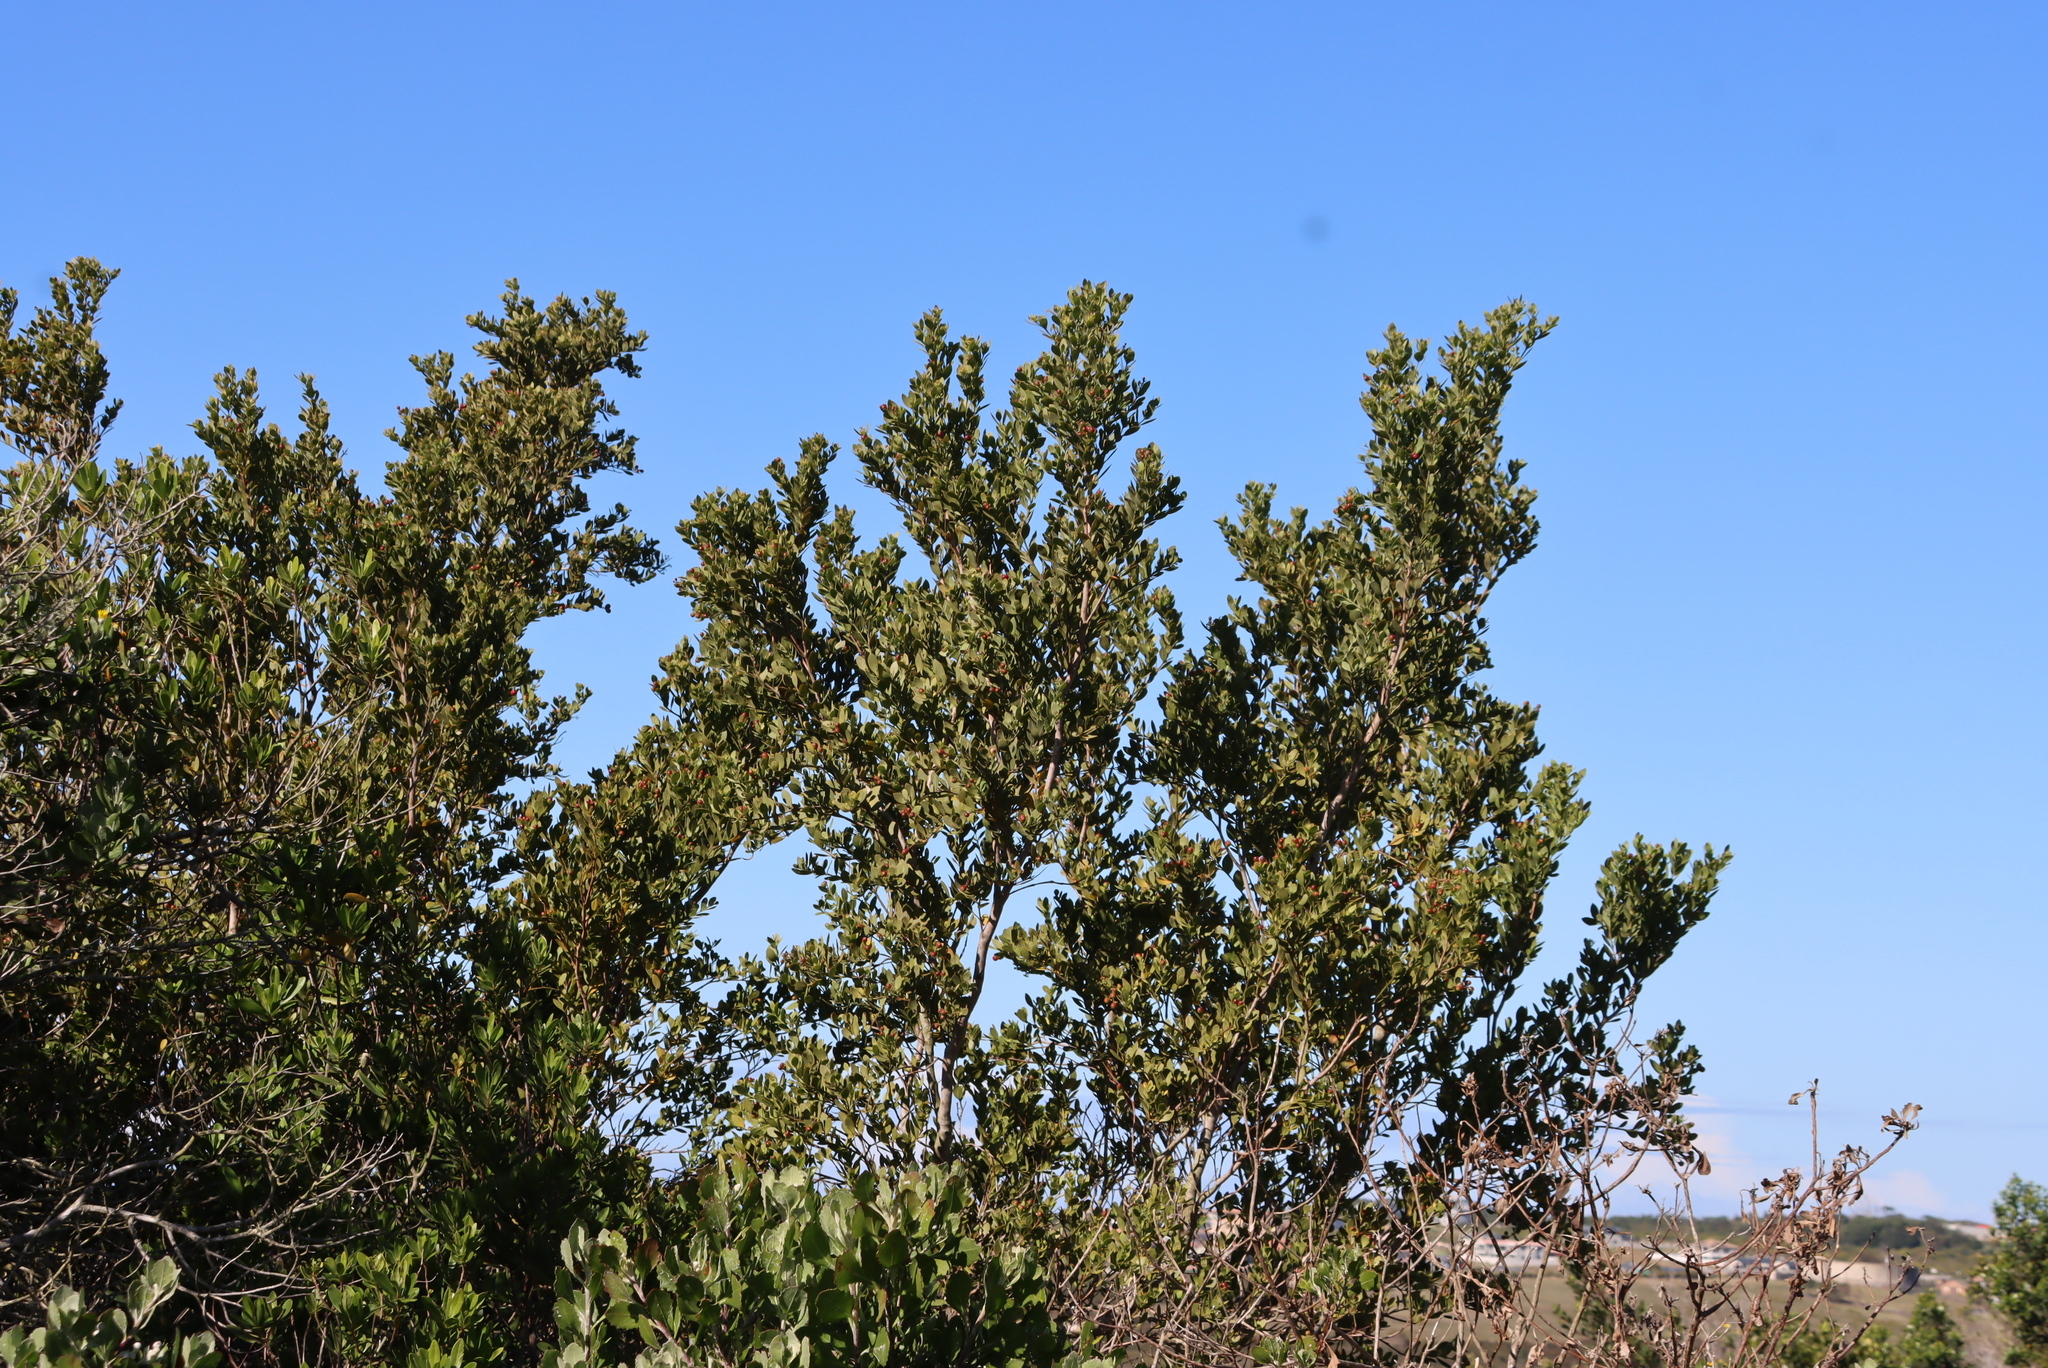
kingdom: Plantae
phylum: Tracheophyta
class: Magnoliopsida
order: Santalales
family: Santalaceae
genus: Osyris
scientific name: Osyris compressa
